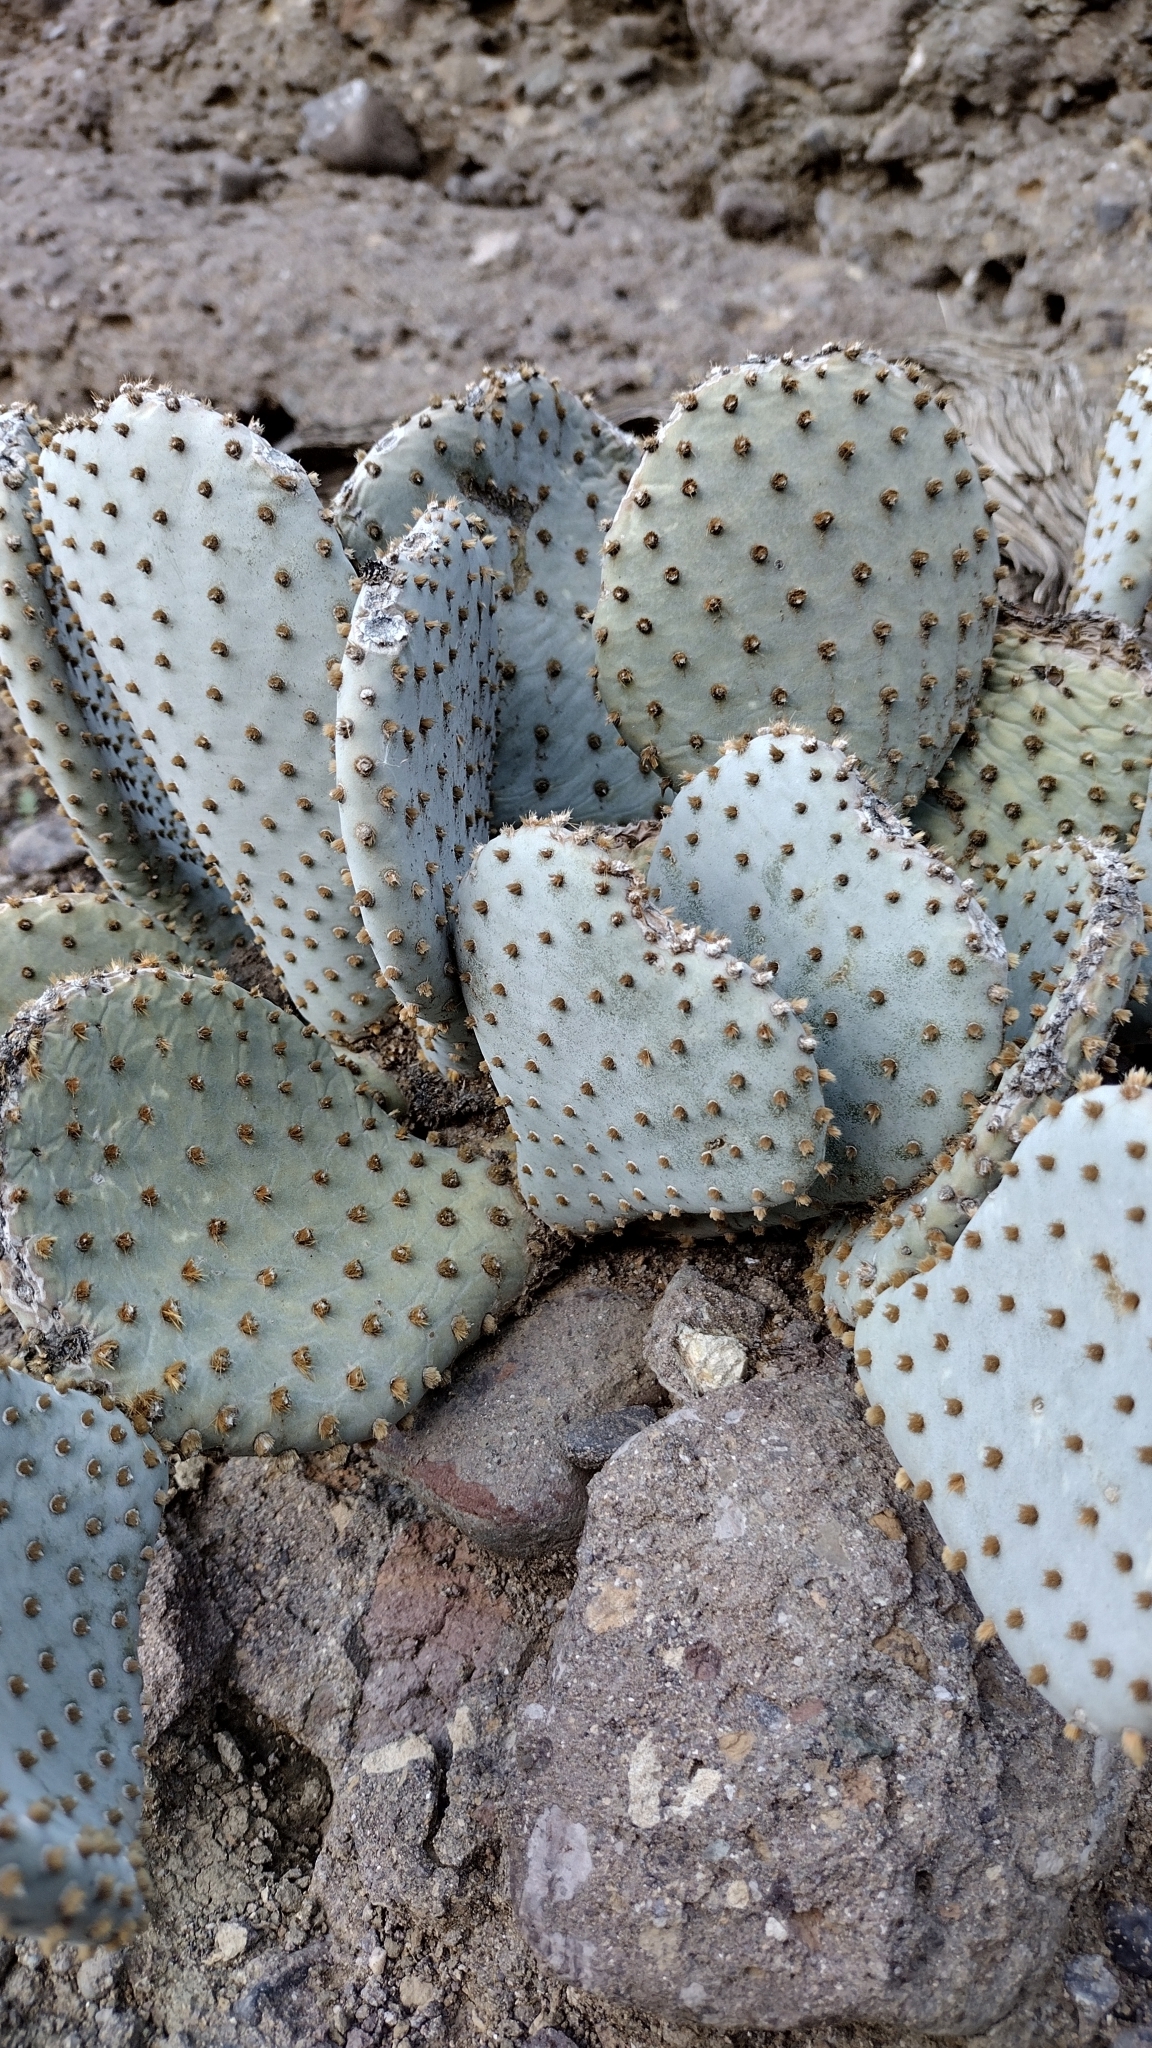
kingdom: Plantae
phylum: Tracheophyta
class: Magnoliopsida
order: Caryophyllales
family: Cactaceae
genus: Opuntia
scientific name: Opuntia basilaris
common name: Beavertail prickly-pear
